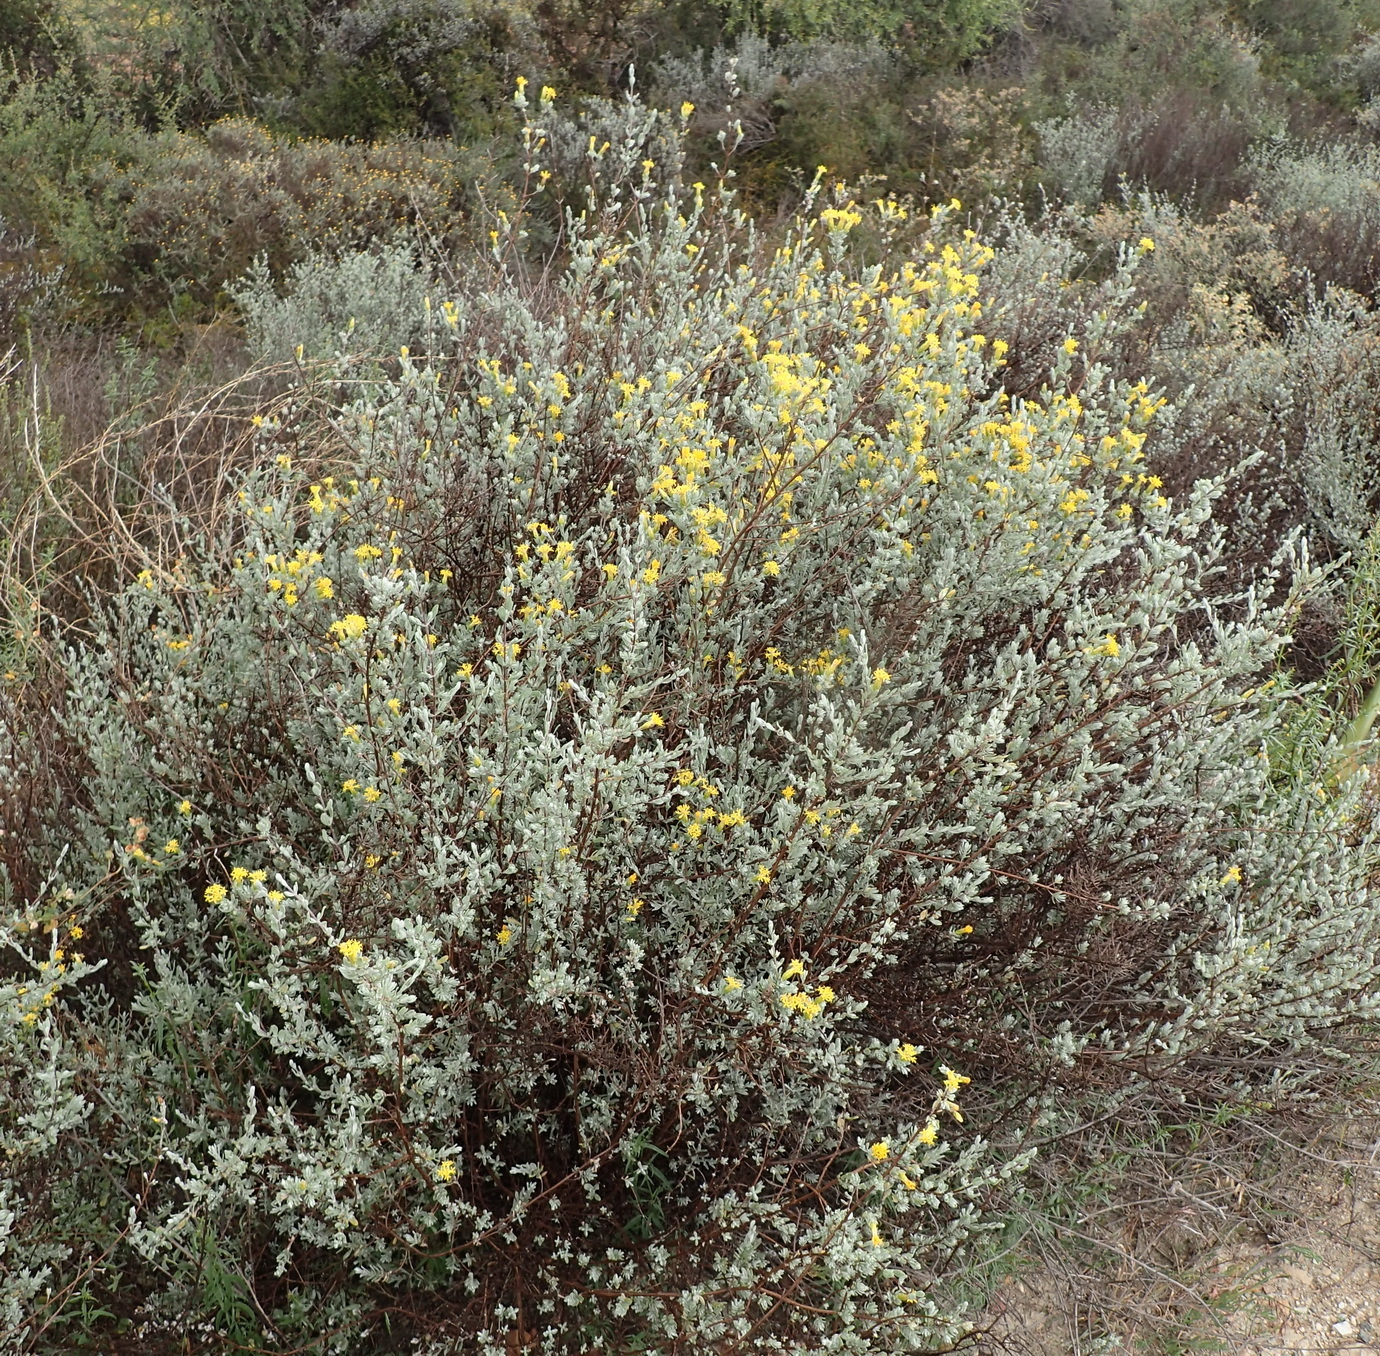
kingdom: Plantae
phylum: Tracheophyta
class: Magnoliopsida
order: Asterales
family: Asteraceae
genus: Pteronia
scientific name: Pteronia incana
